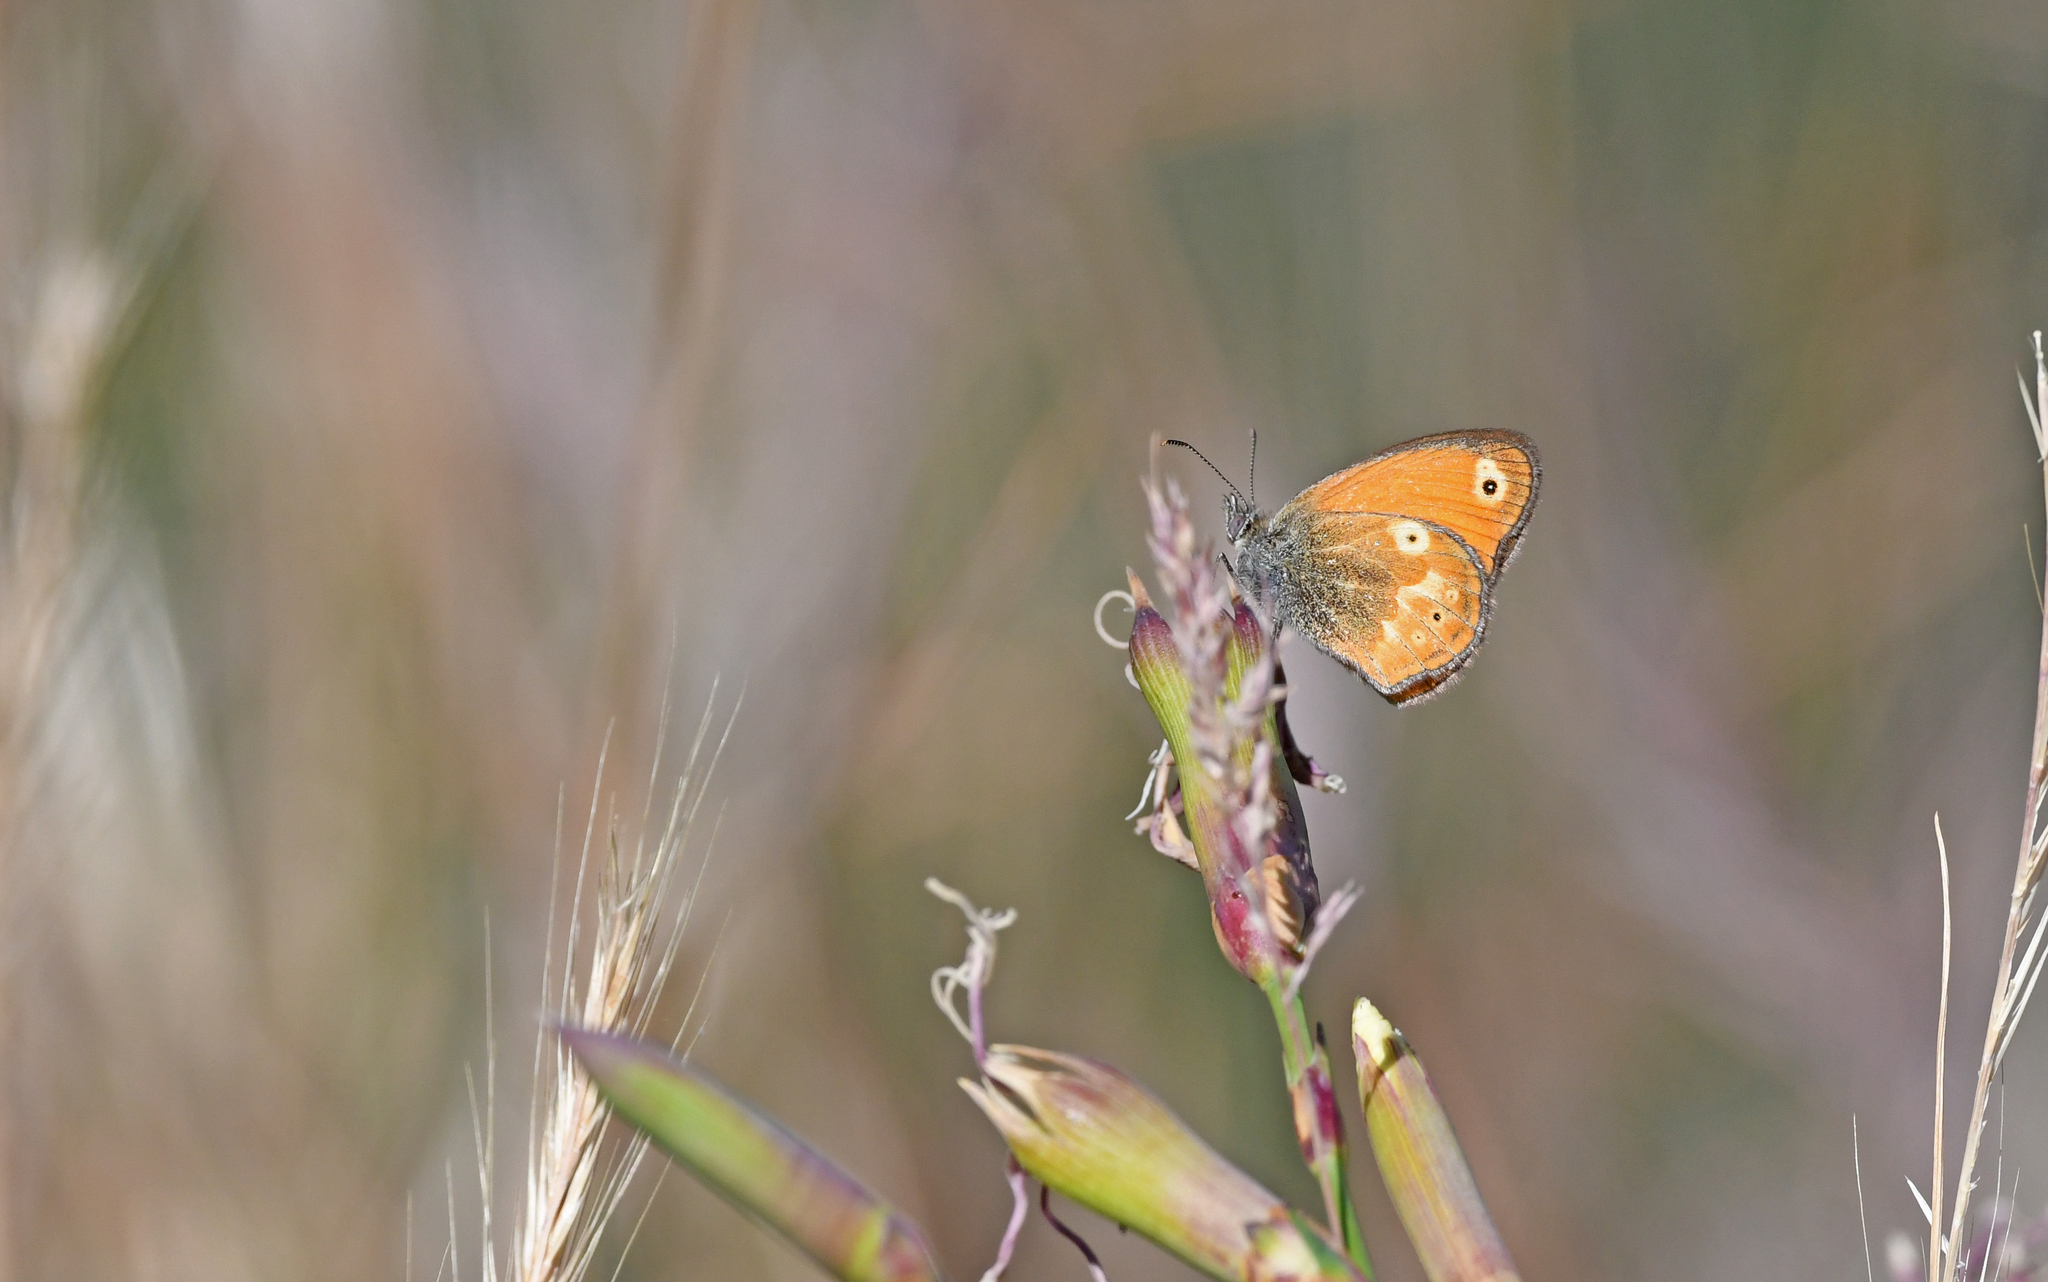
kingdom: Animalia
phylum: Arthropoda
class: Insecta
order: Lepidoptera
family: Nymphalidae
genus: Coenonympha
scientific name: Coenonympha corinna
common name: Corsican heath
